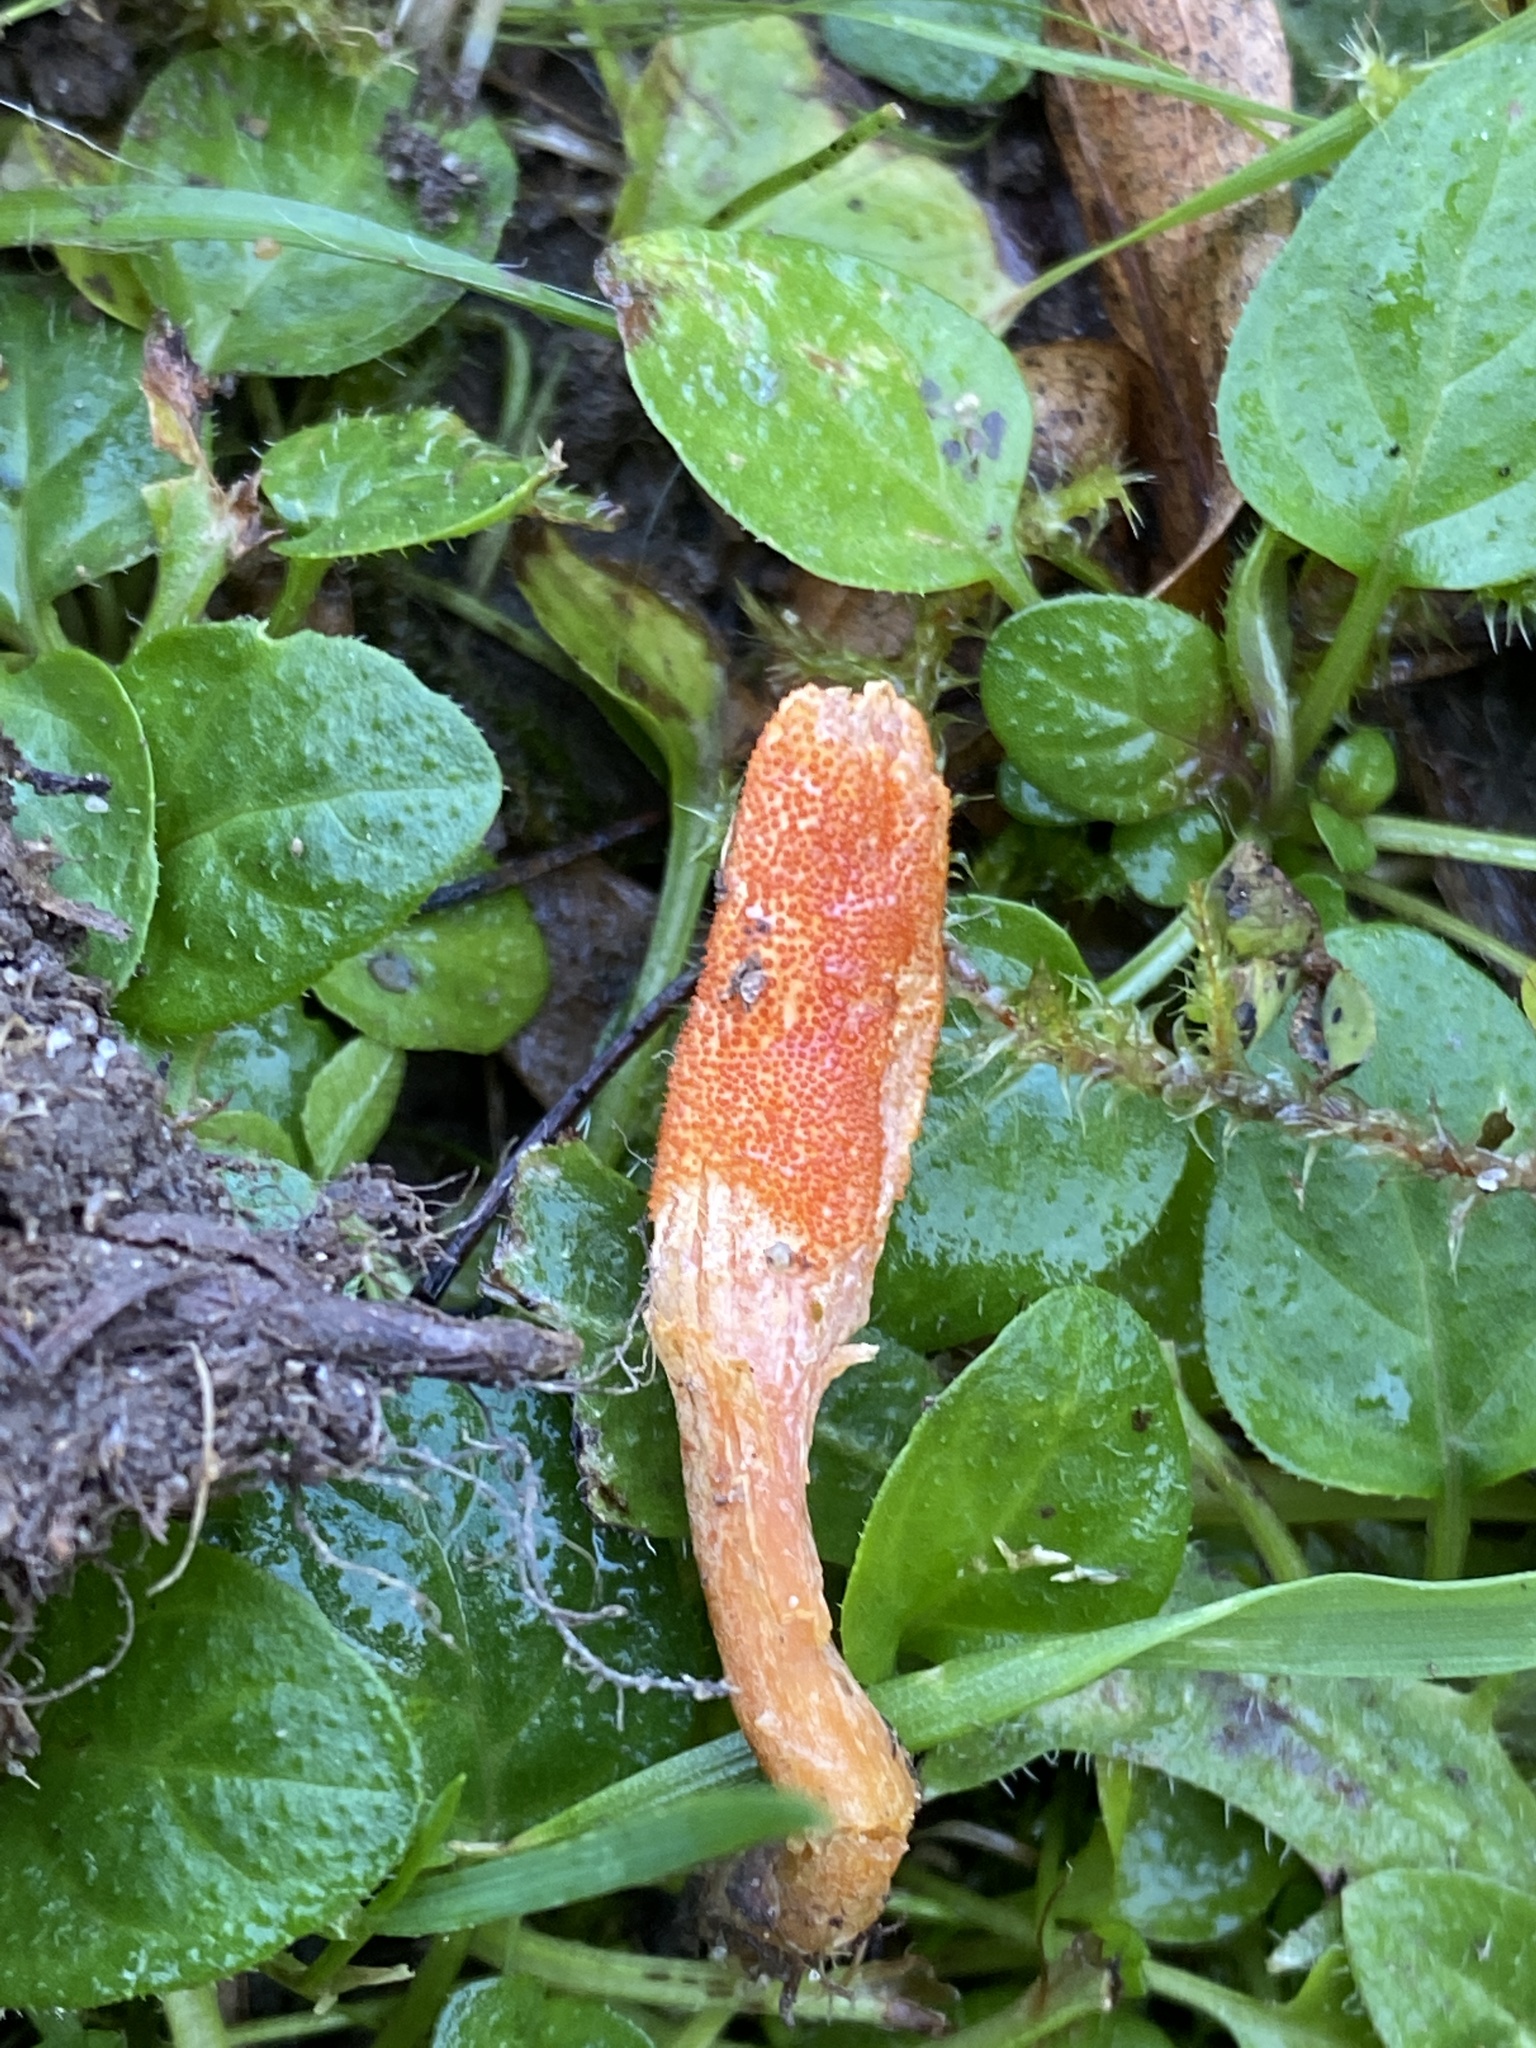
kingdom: Fungi
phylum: Ascomycota
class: Sordariomycetes
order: Hypocreales
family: Cordycipitaceae
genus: Cordyceps
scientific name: Cordyceps militaris
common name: Scarlet caterpillar fungus
